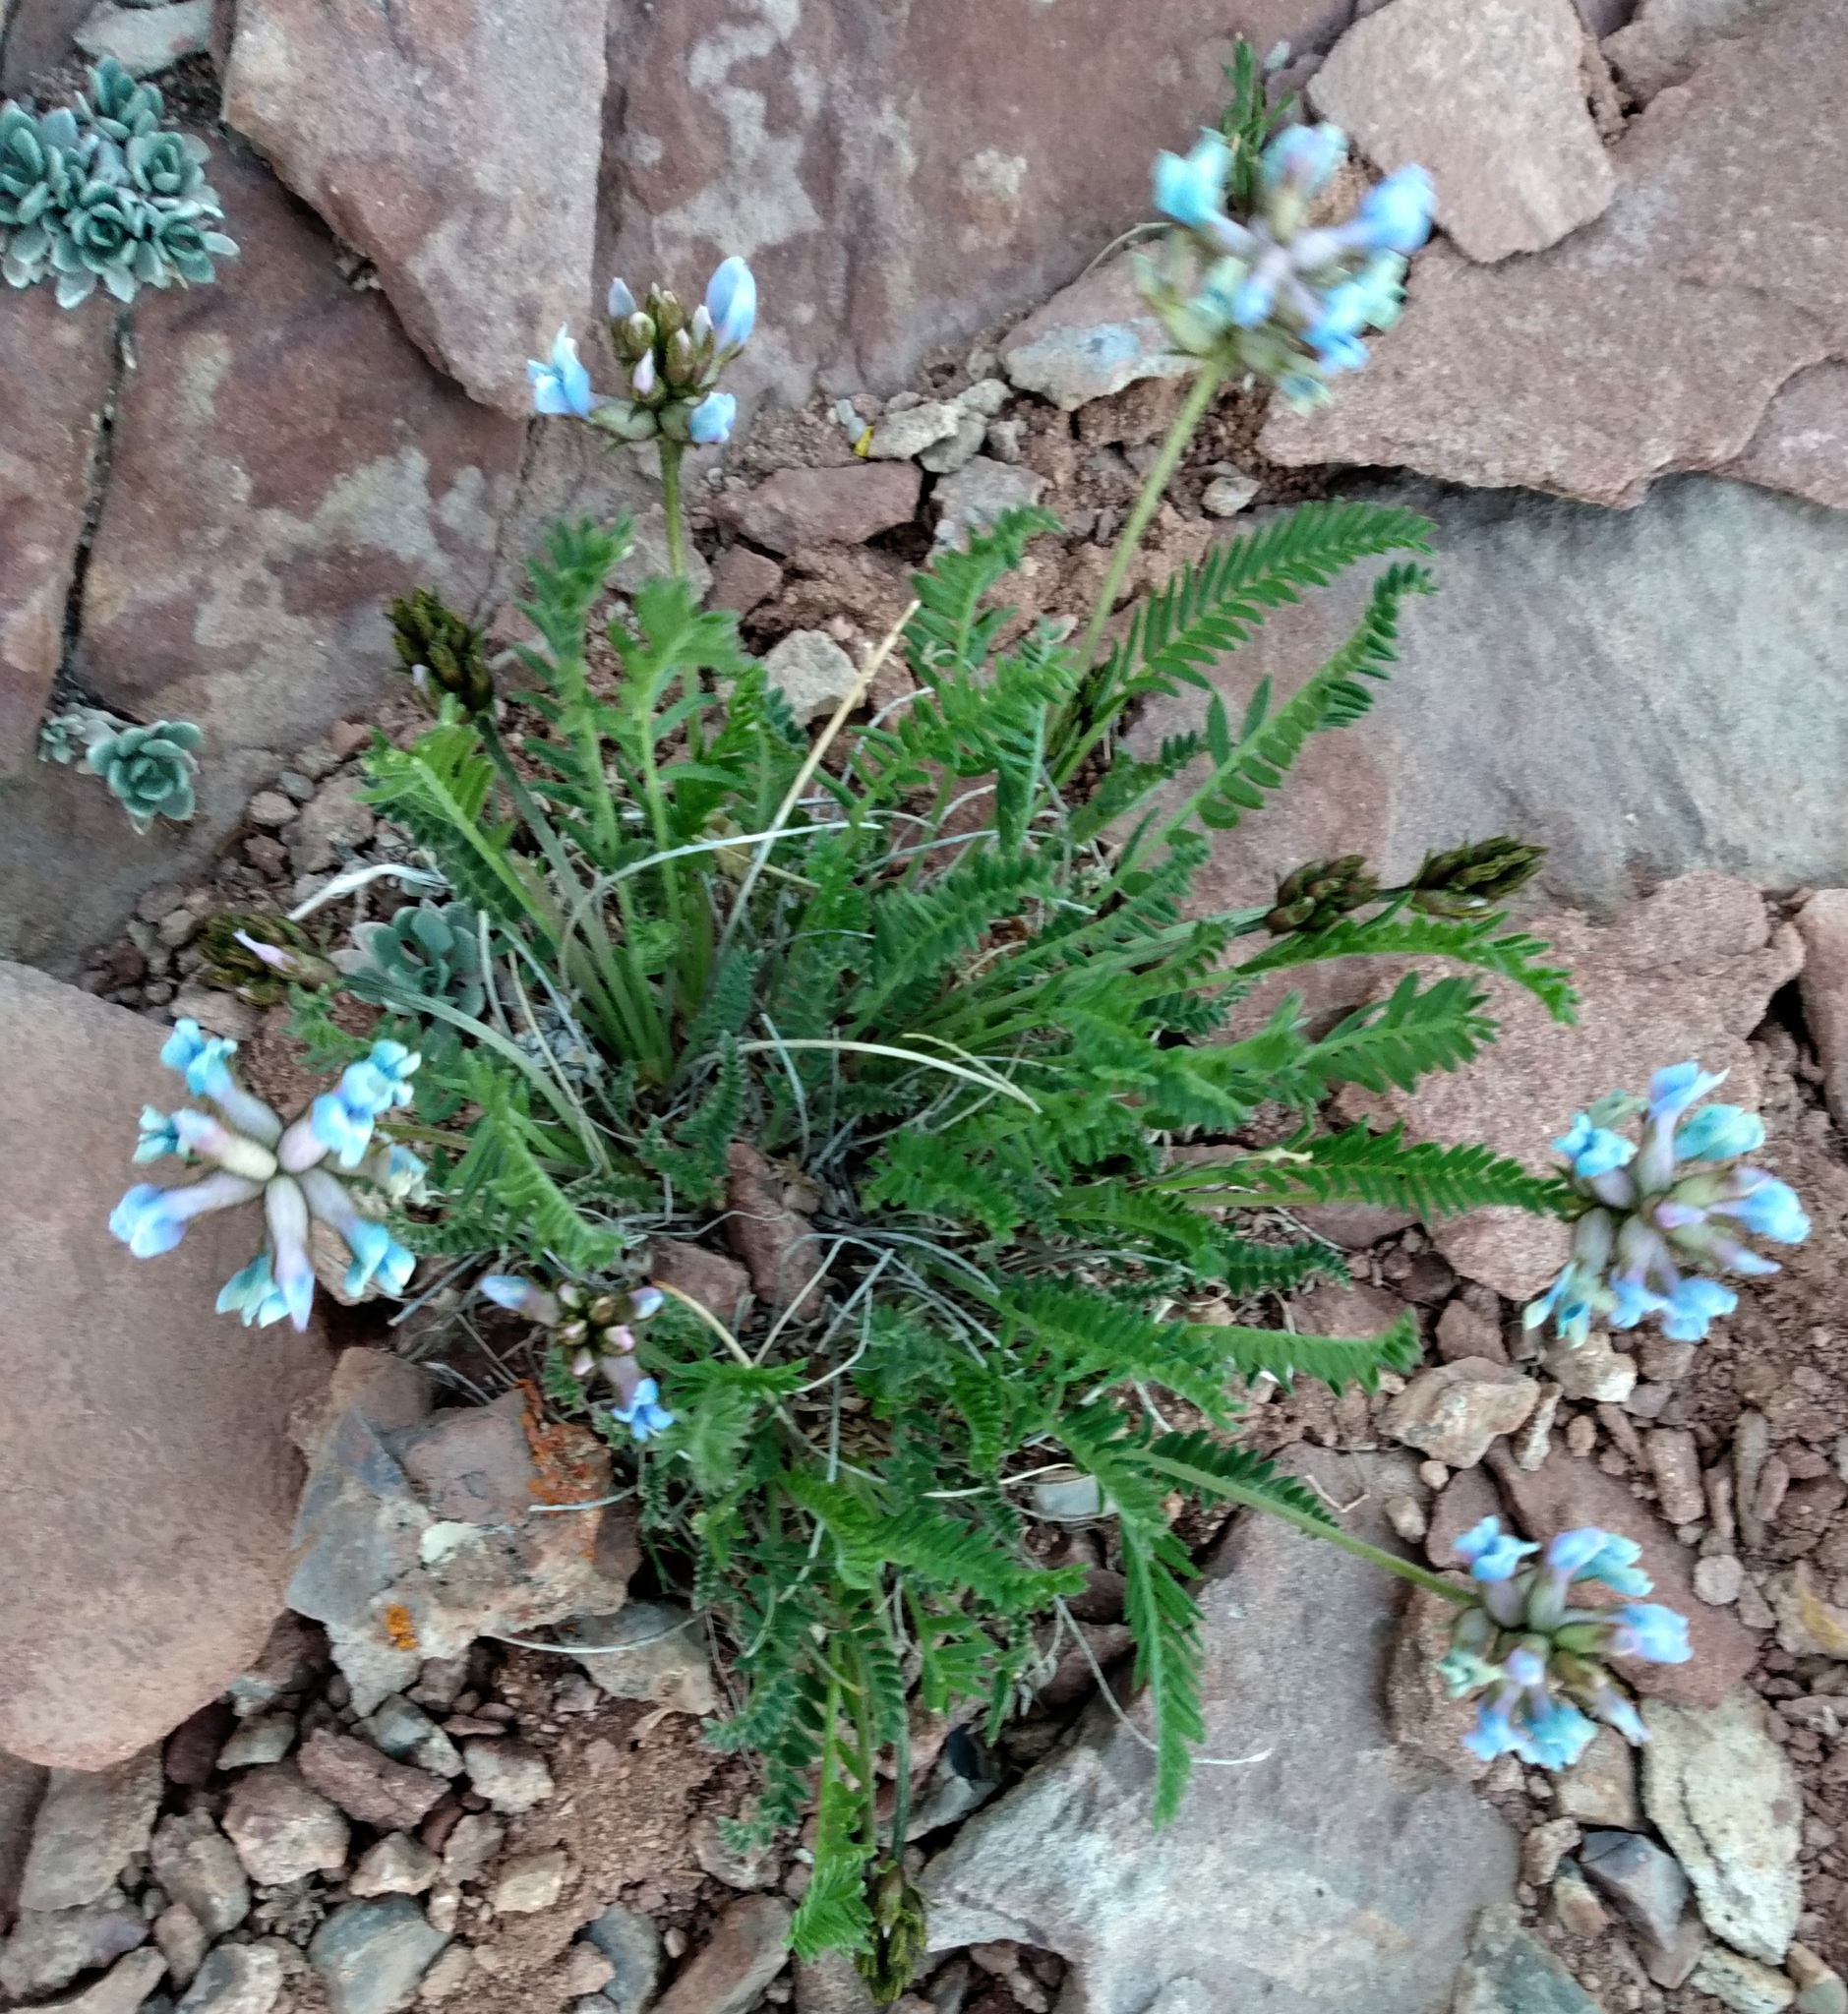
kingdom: Plantae
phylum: Tracheophyta
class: Magnoliopsida
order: Fabales
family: Fabaceae
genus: Oxytropis
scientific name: Oxytropis borealis
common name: Boreal locoweed
